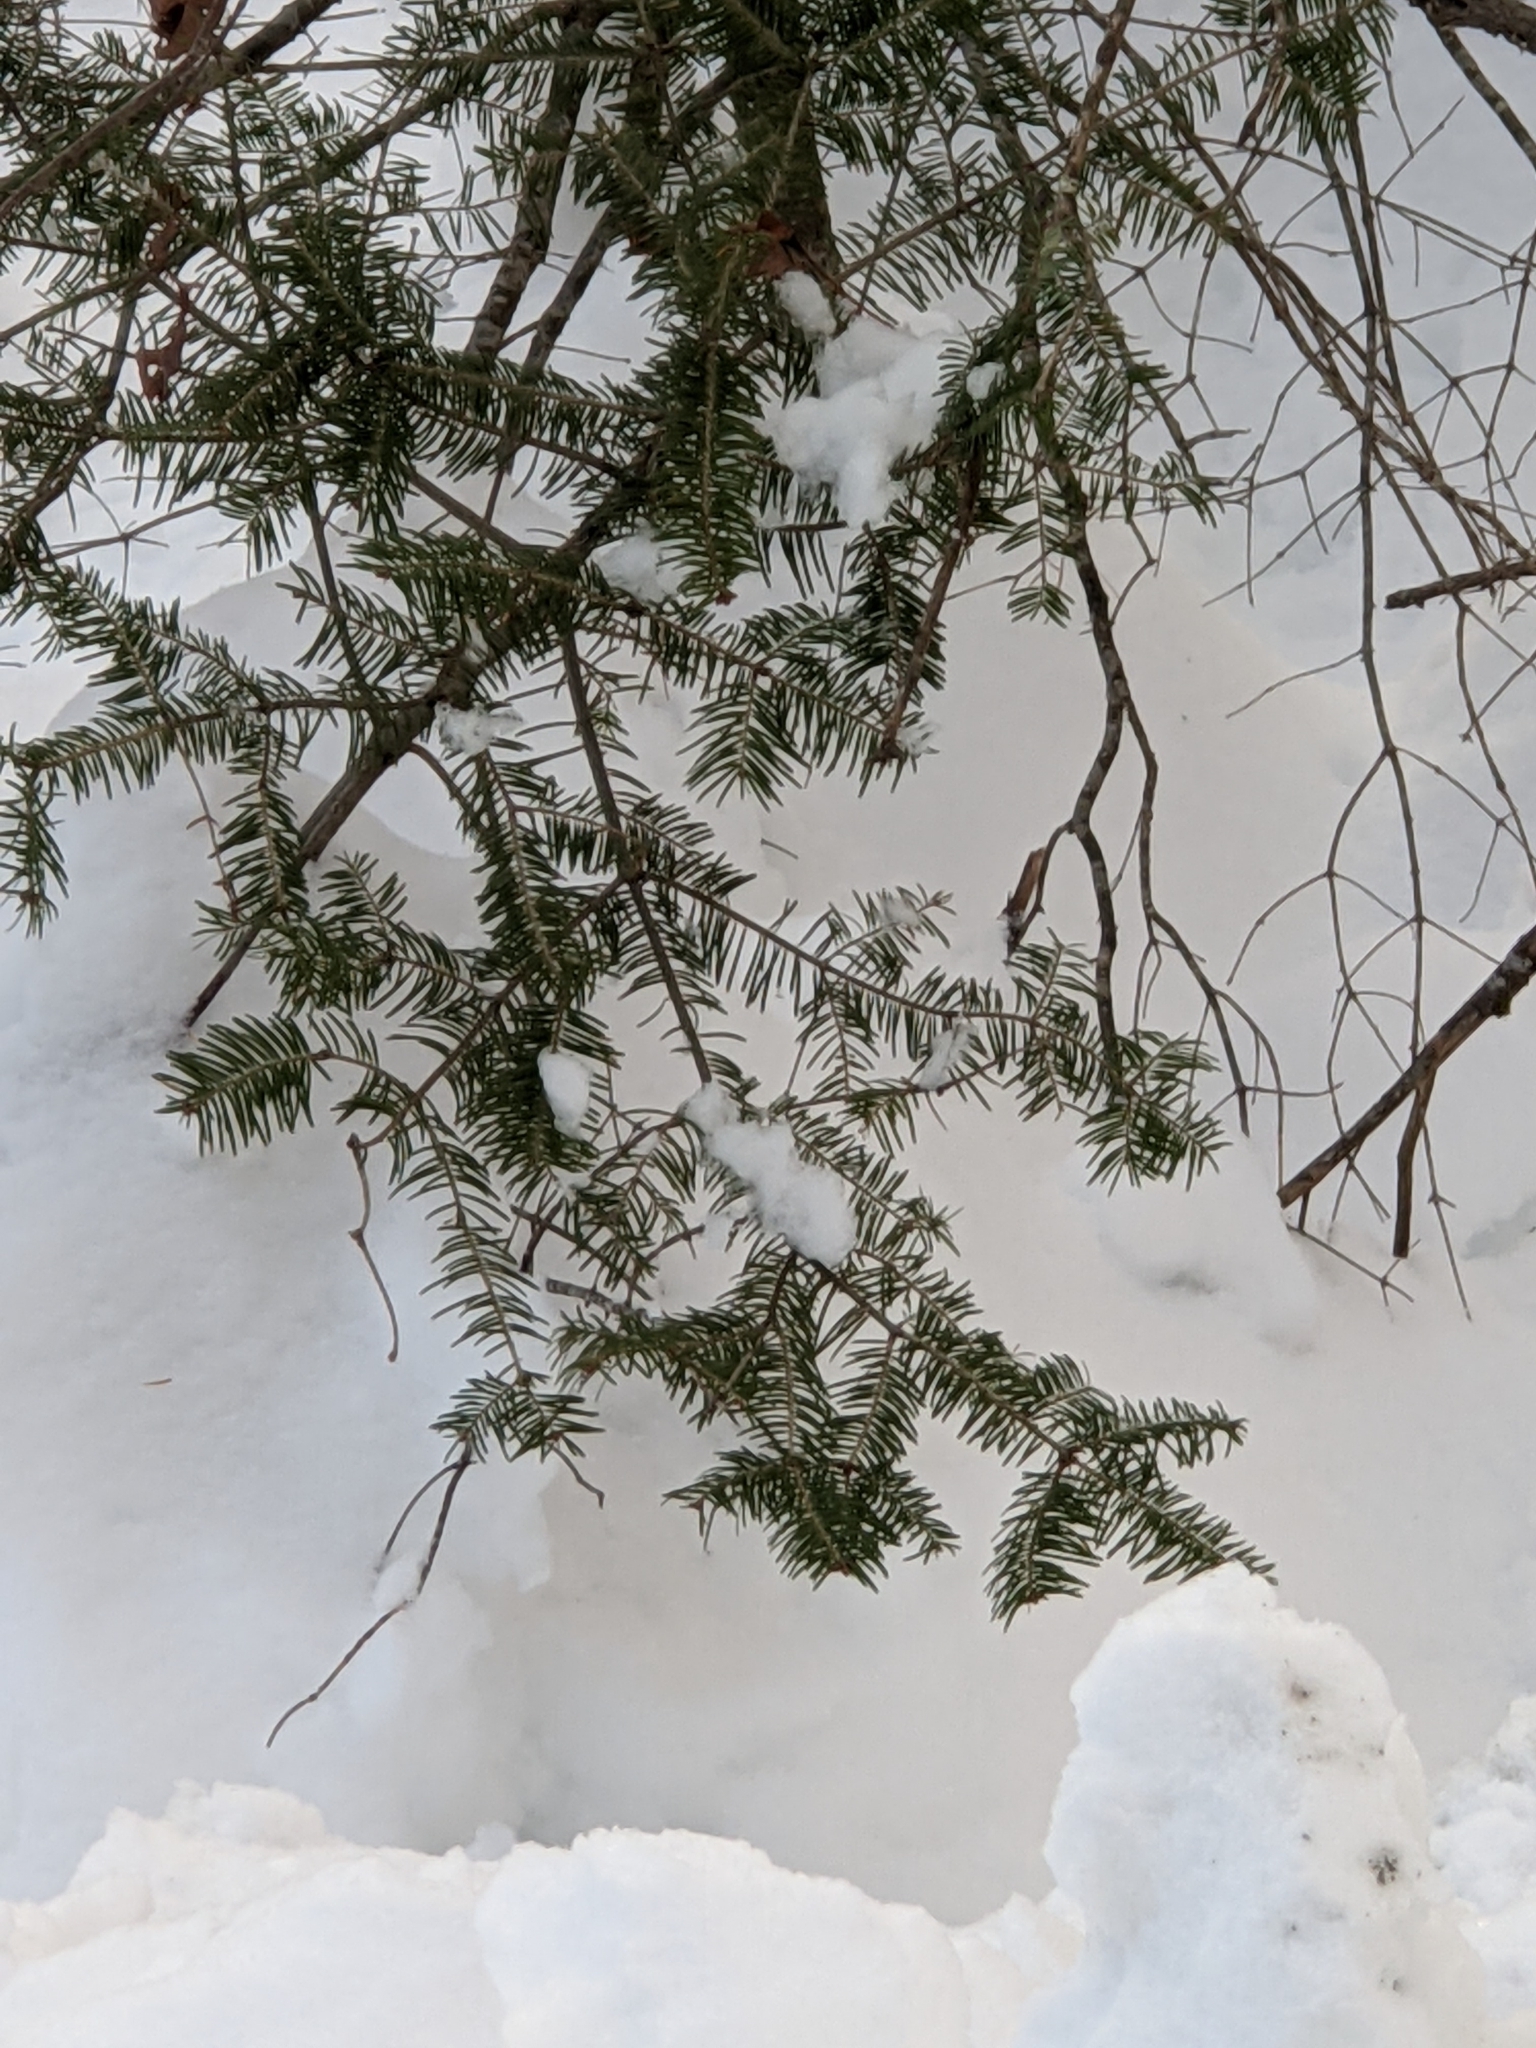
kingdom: Plantae
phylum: Tracheophyta
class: Pinopsida
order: Pinales
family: Pinaceae
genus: Abies
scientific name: Abies balsamea
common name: Balsam fir
